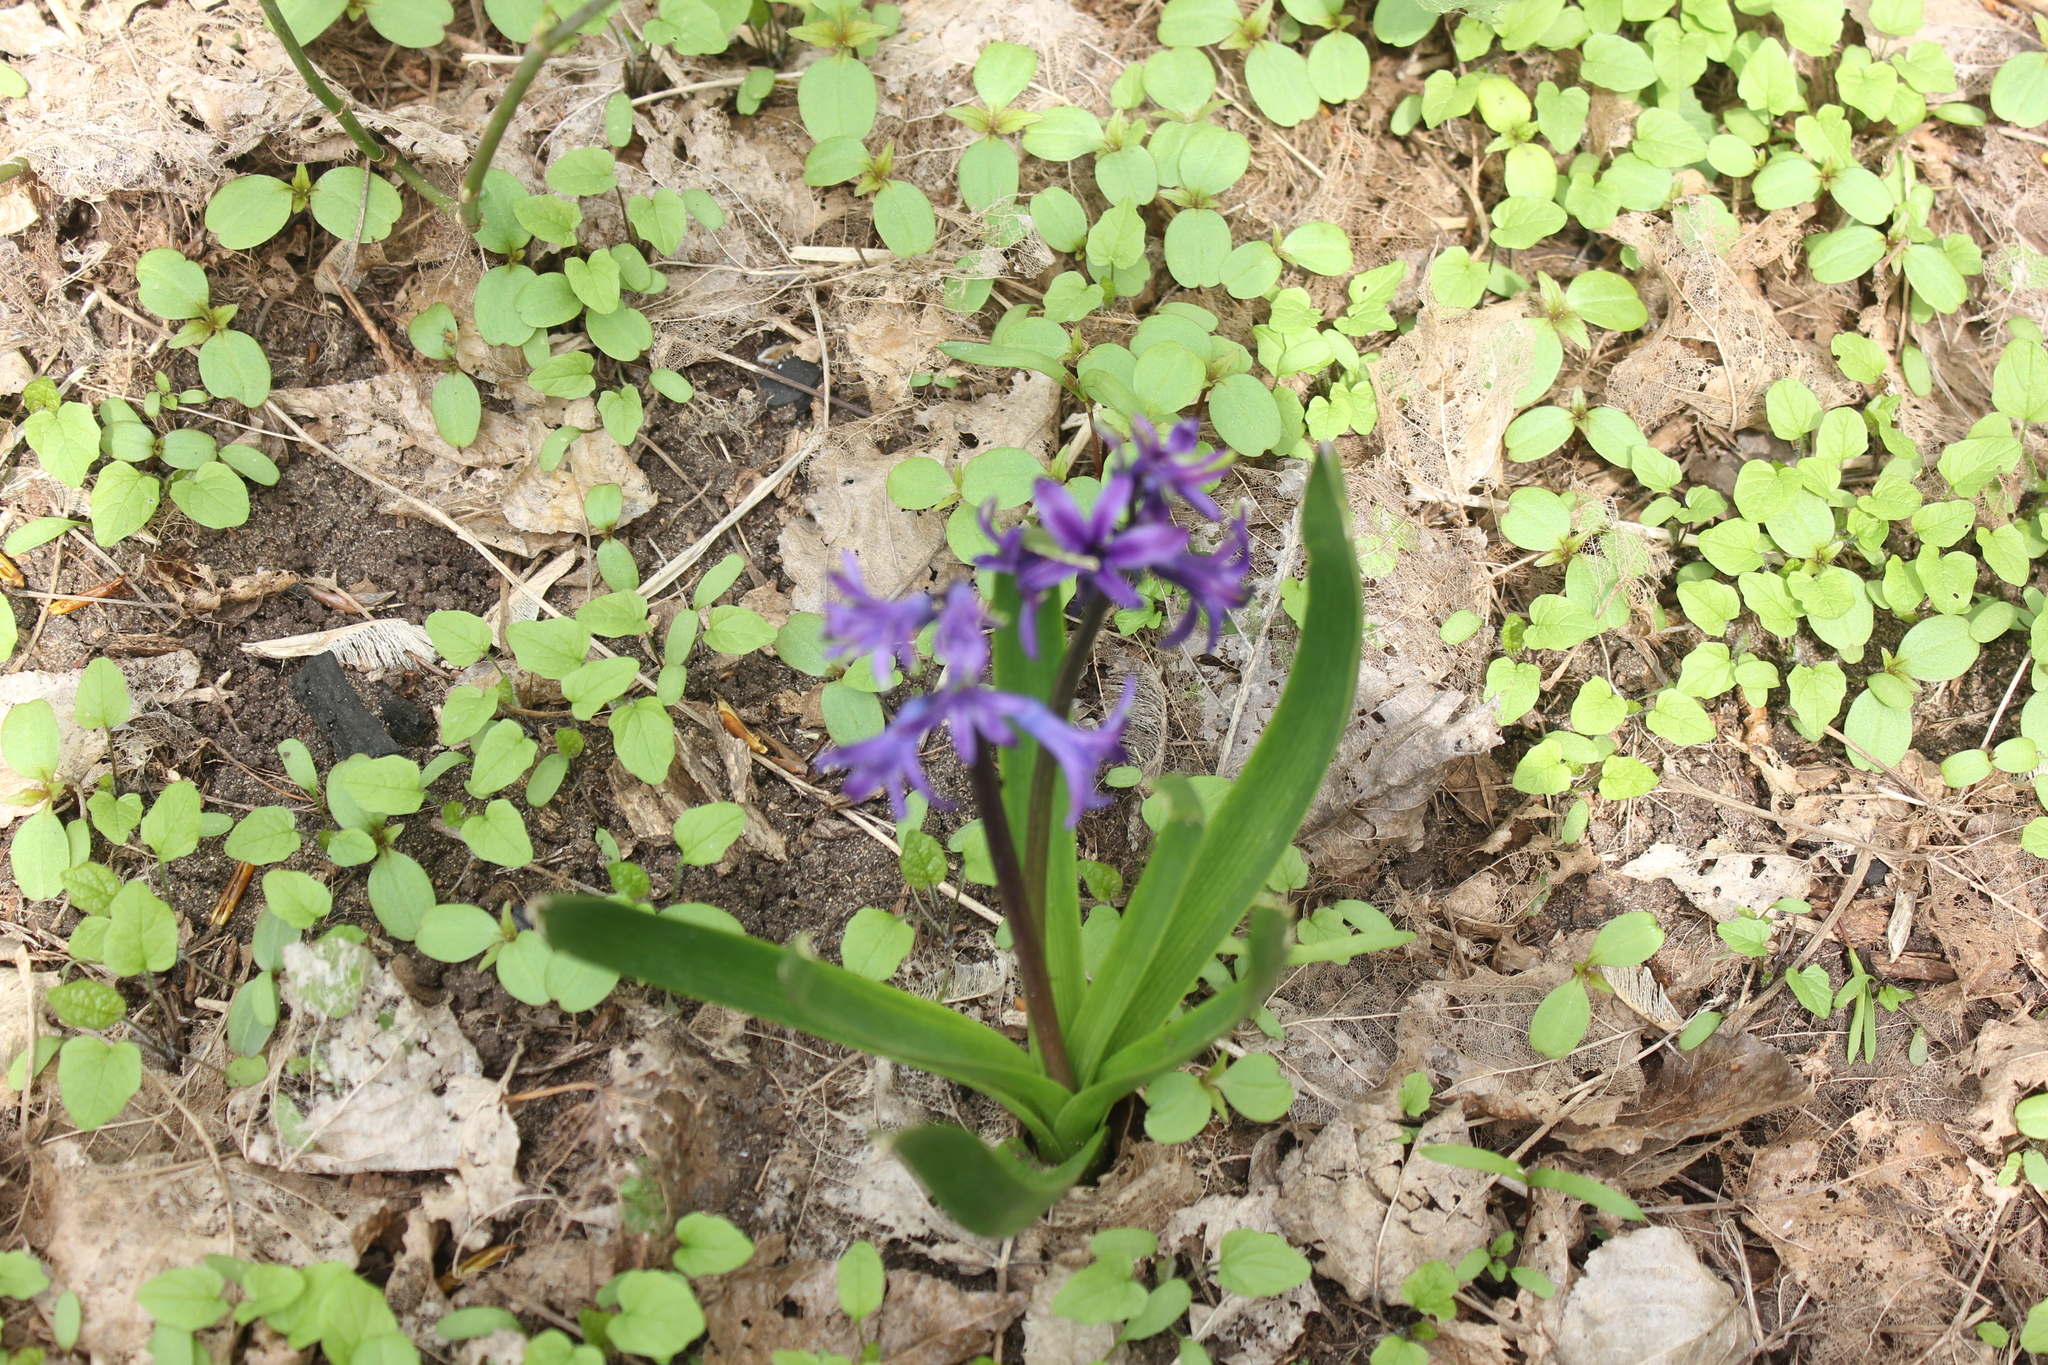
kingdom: Plantae
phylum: Tracheophyta
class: Liliopsida
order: Asparagales
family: Asparagaceae
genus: Hyacinthus
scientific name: Hyacinthus orientalis
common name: Hyacinth
